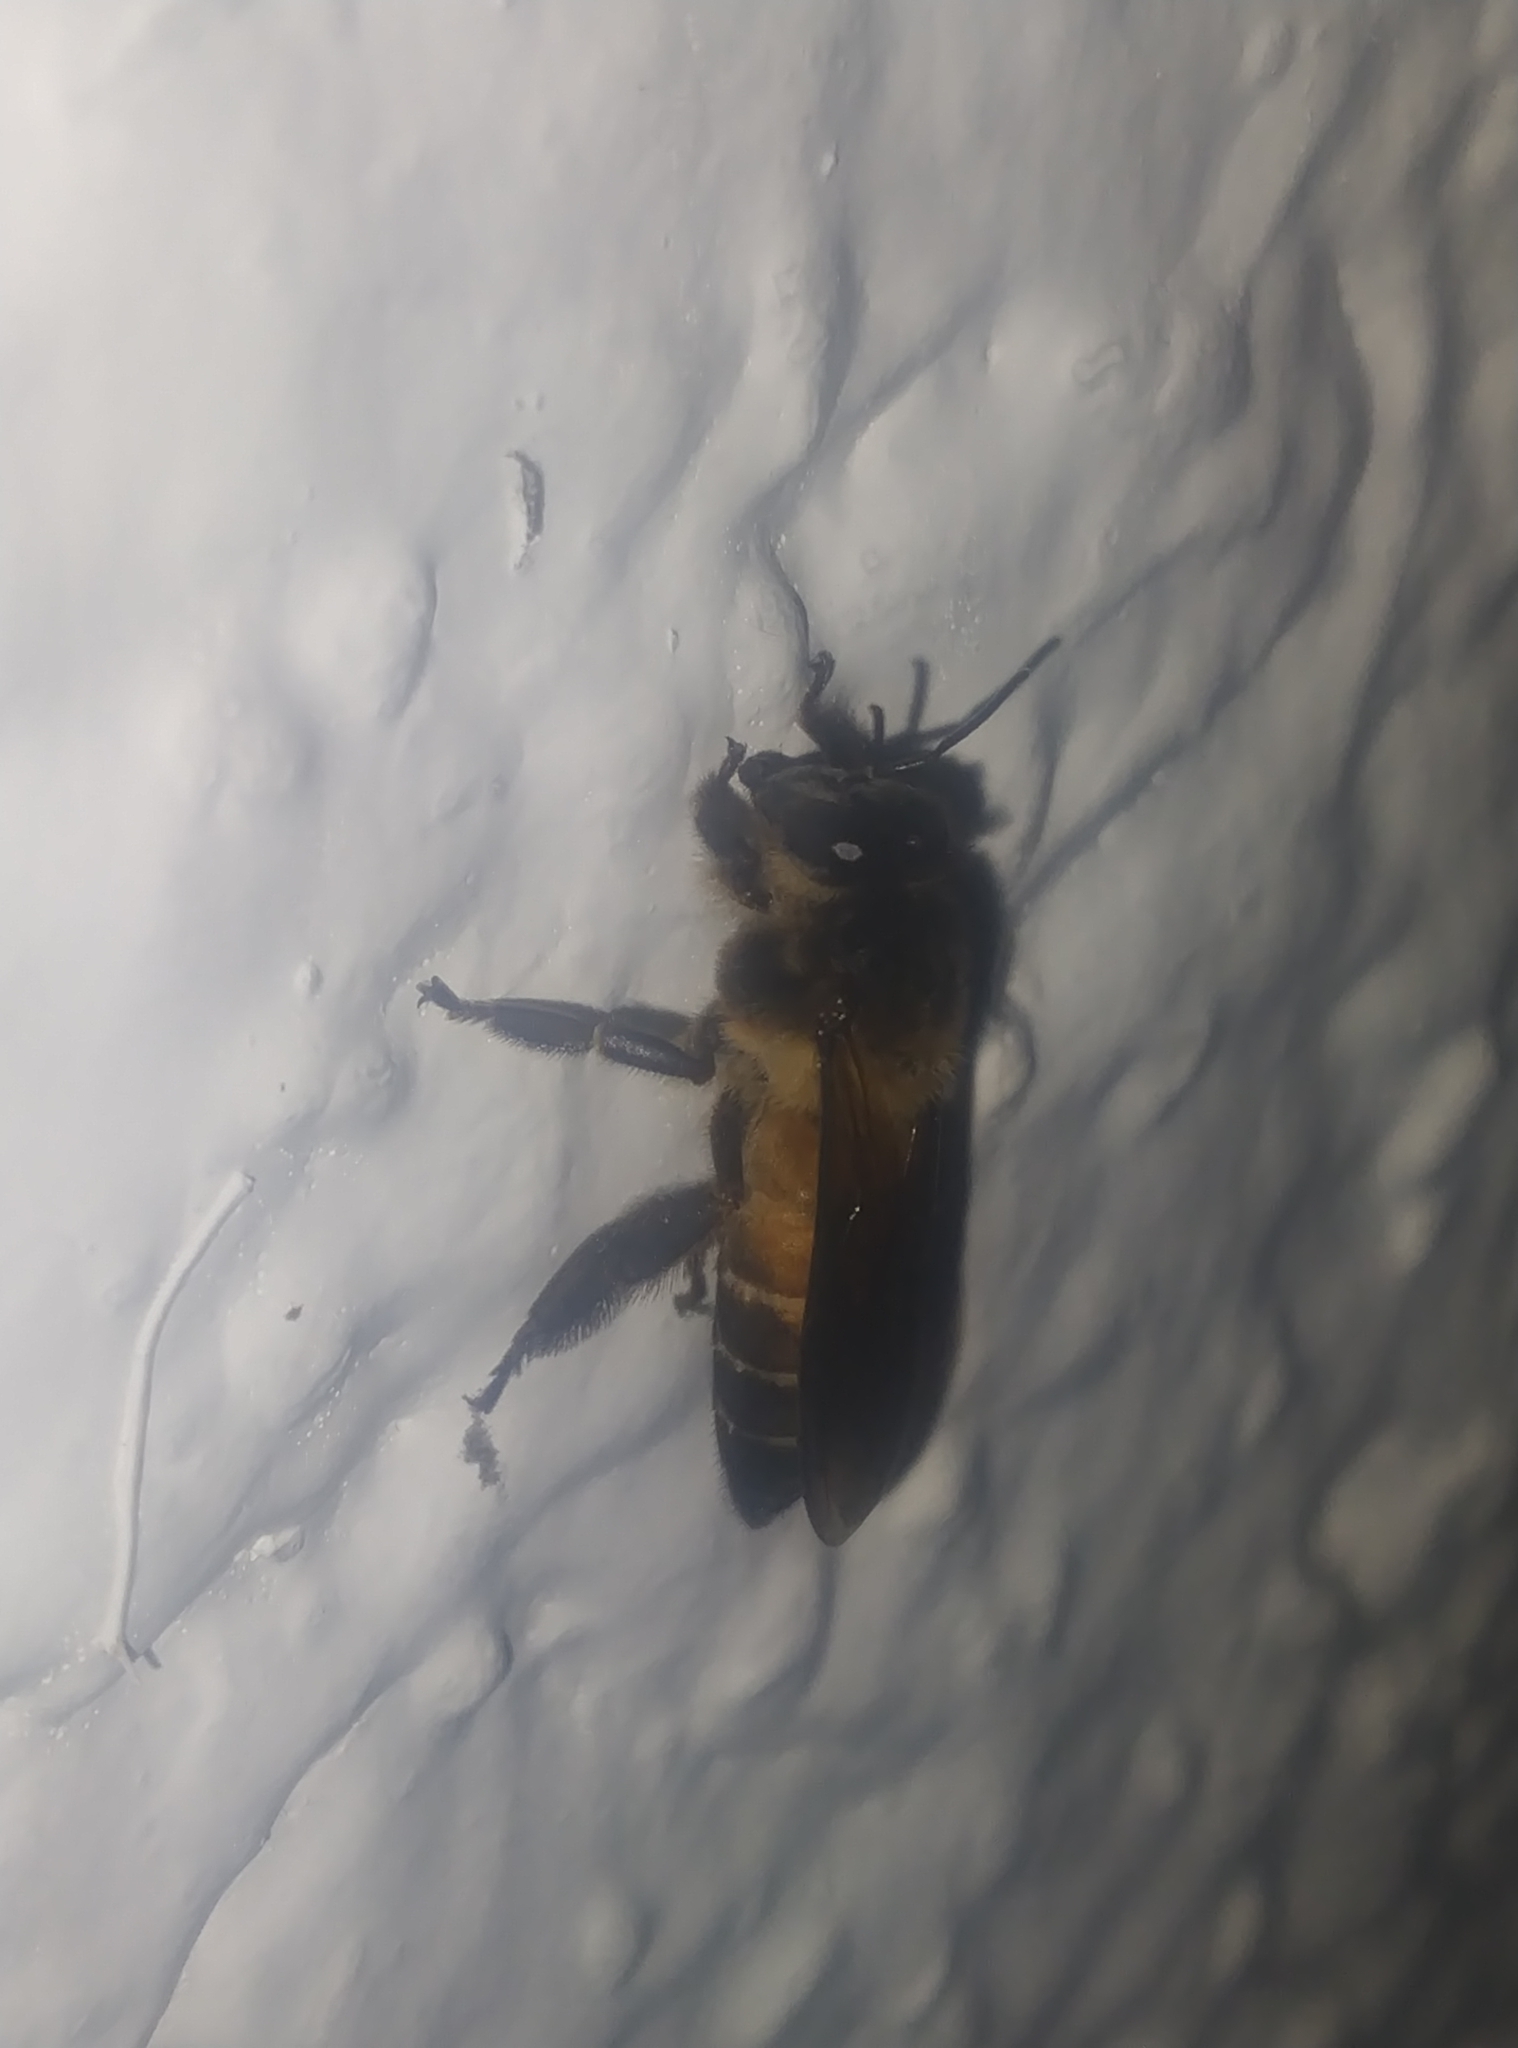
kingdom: Animalia
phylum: Arthropoda
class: Insecta
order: Hymenoptera
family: Apidae
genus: Apis
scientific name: Apis dorsata
